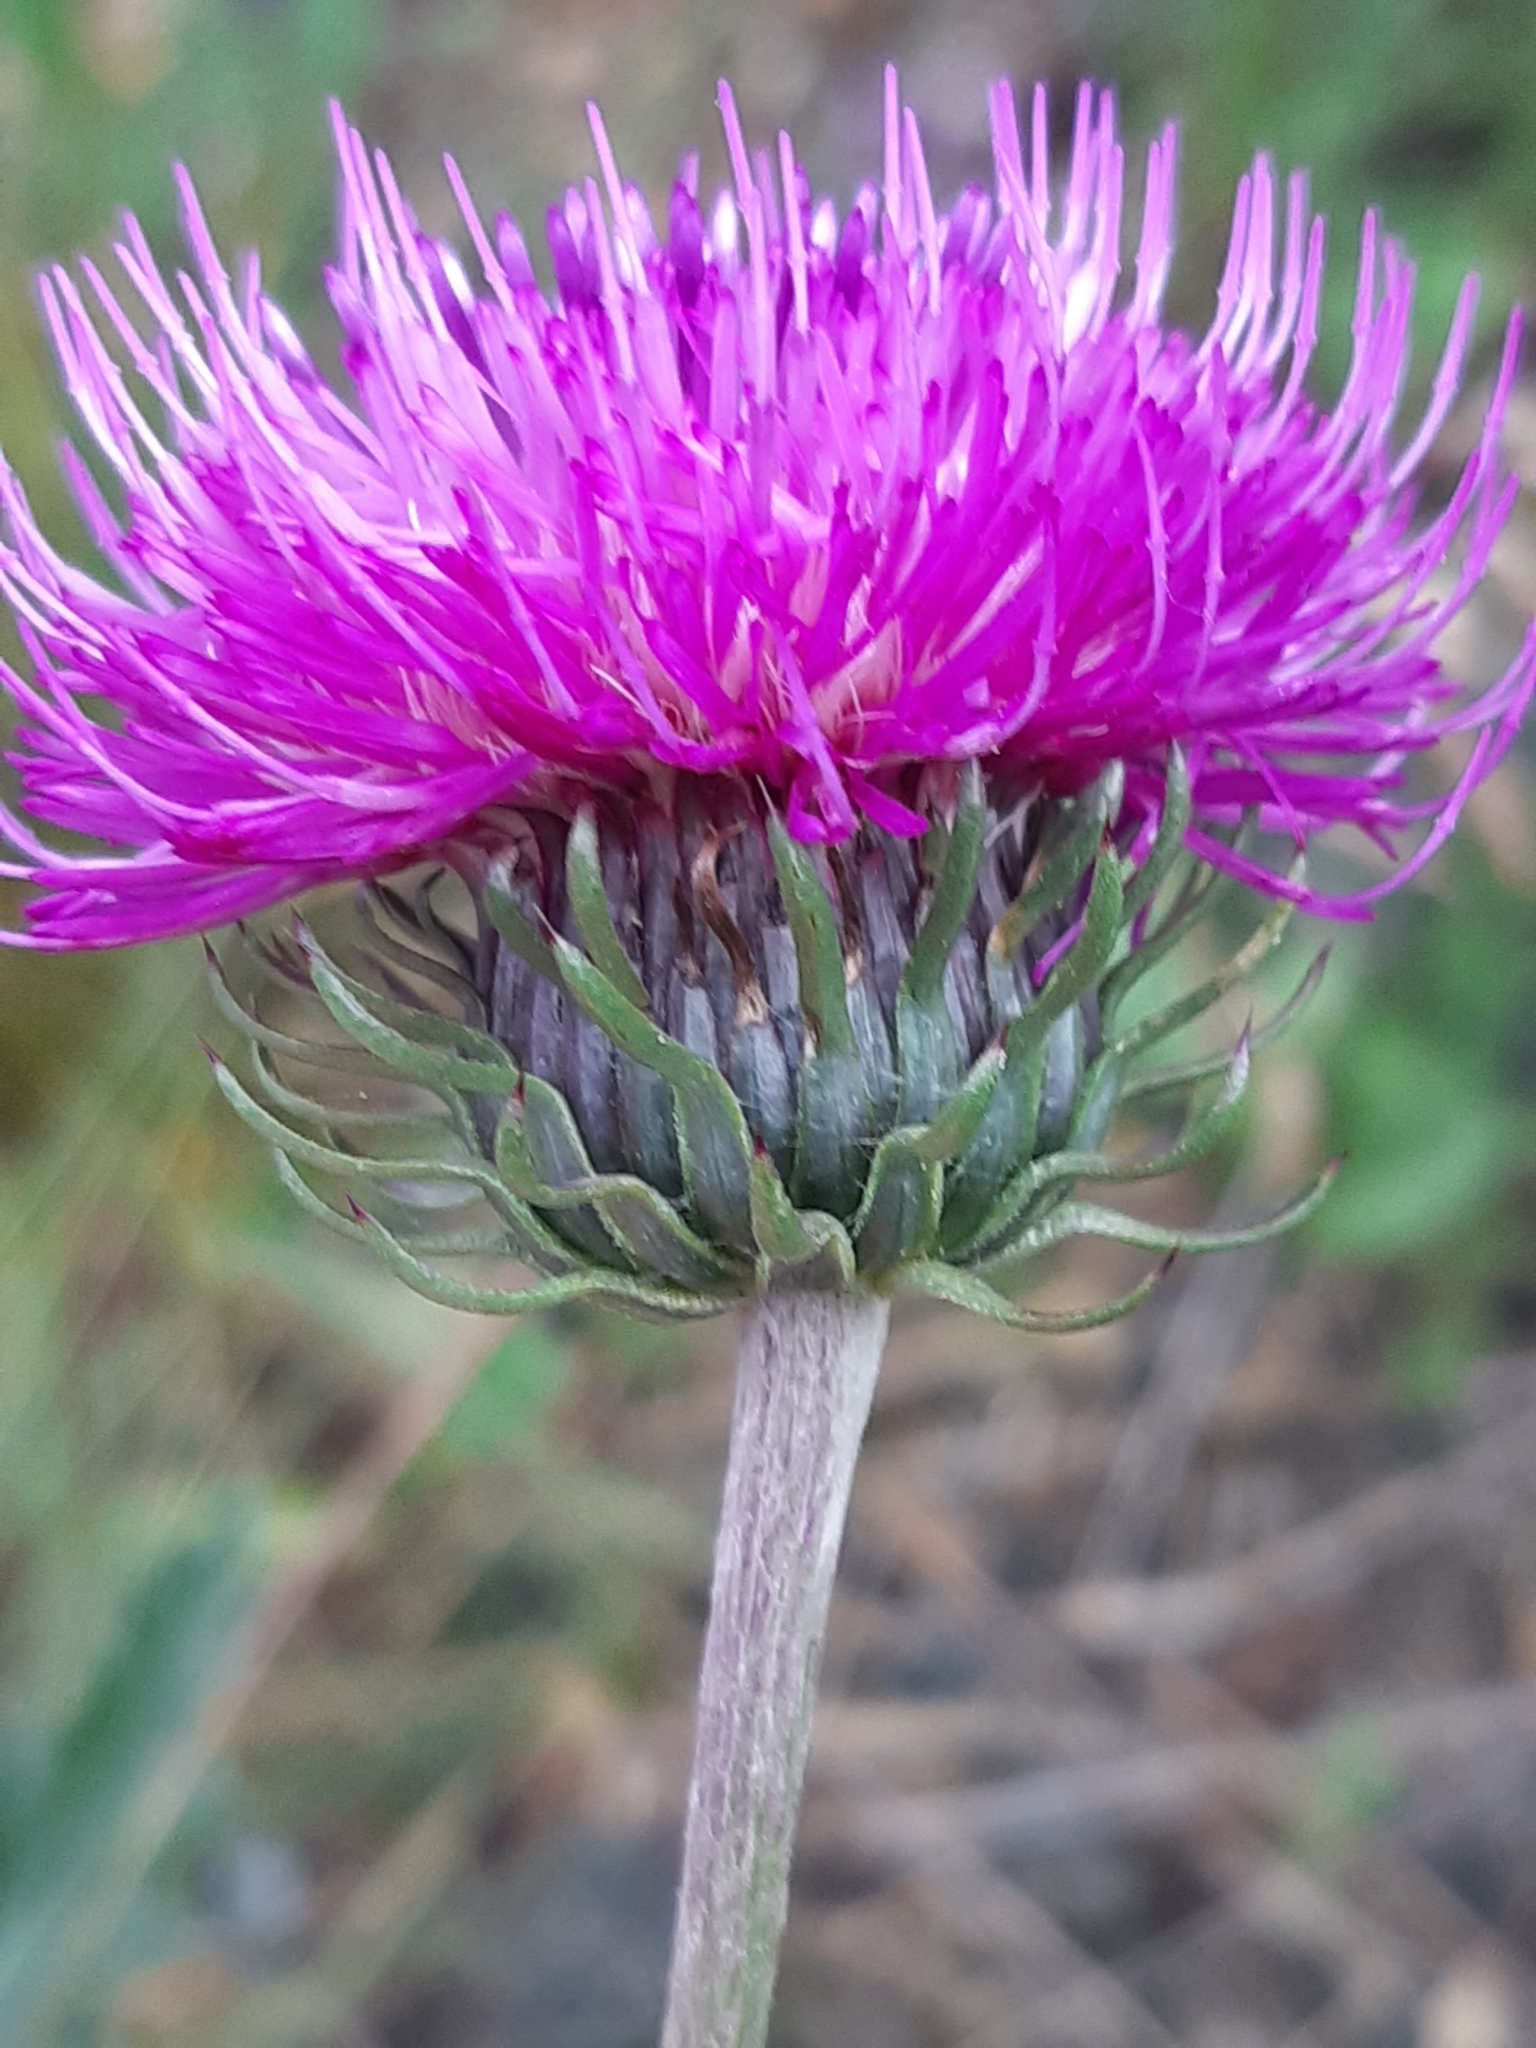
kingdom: Plantae
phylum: Tracheophyta
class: Magnoliopsida
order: Asterales
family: Asteraceae
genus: Carduus
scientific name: Carduus defloratus
